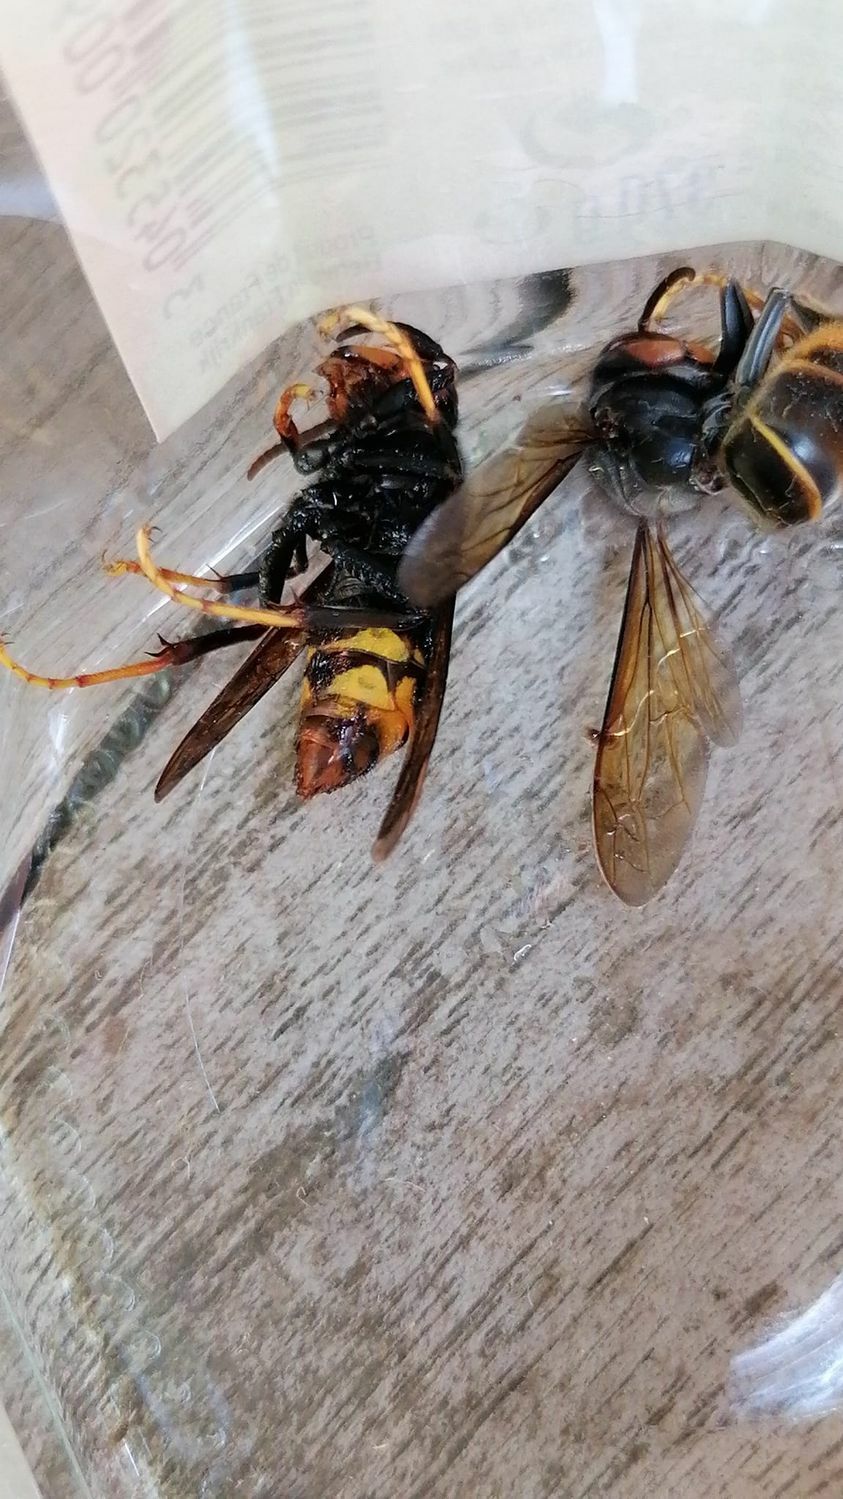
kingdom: Animalia
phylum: Arthropoda
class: Insecta
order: Hymenoptera
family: Vespidae
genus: Vespa
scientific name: Vespa velutina
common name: Asian hornet
